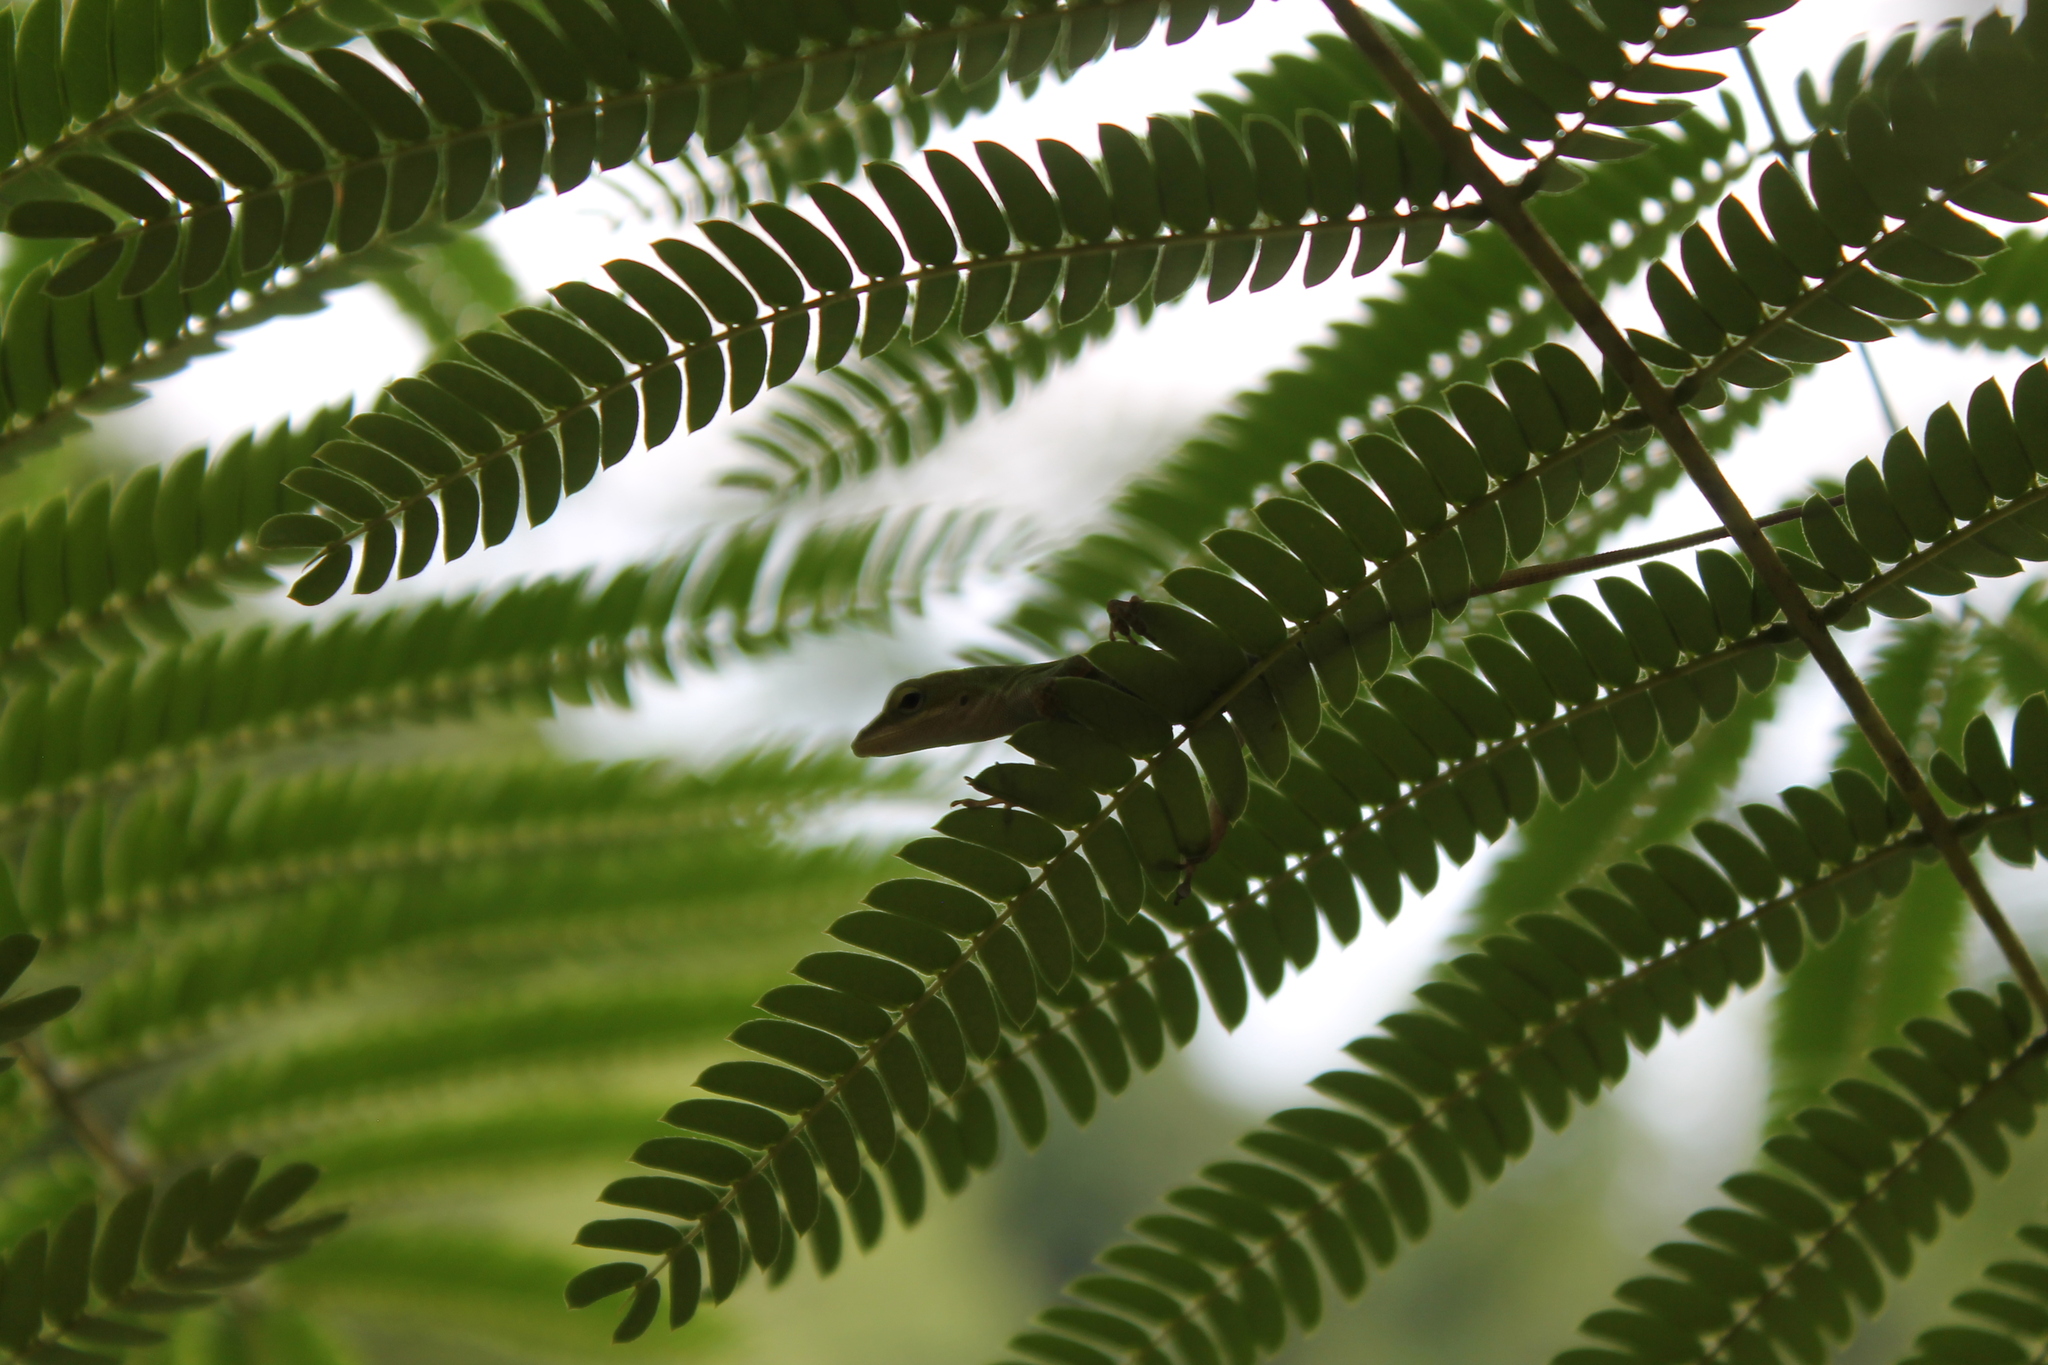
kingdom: Animalia
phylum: Chordata
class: Squamata
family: Dactyloidae
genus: Anolis
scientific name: Anolis carolinensis
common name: Green anole
